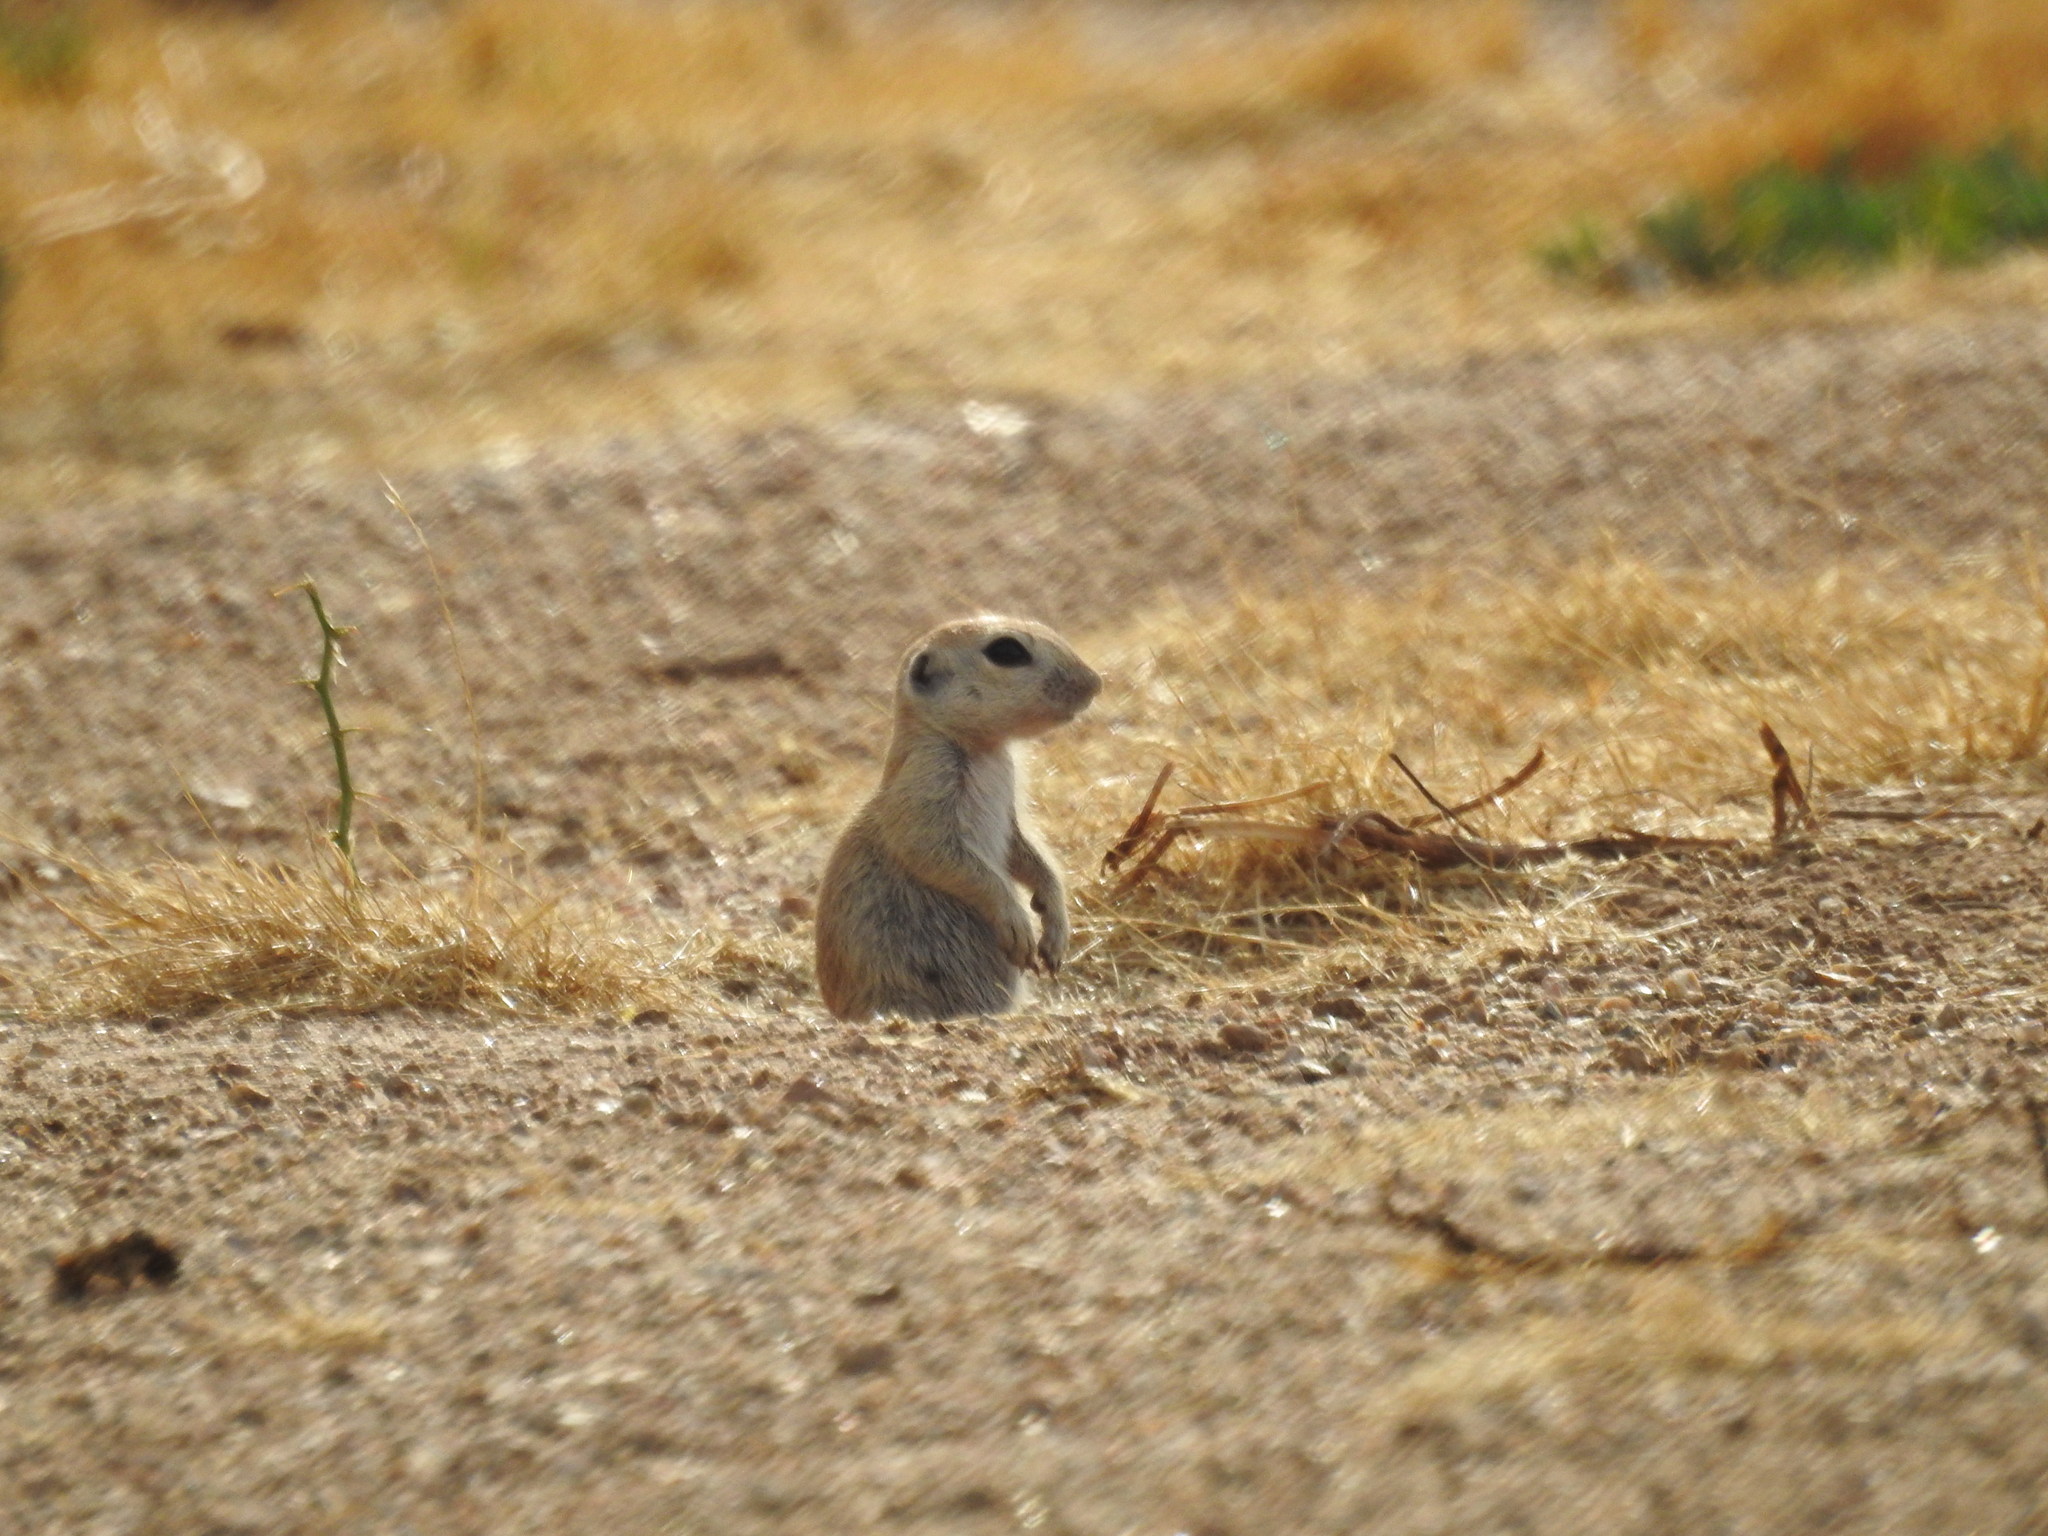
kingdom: Animalia
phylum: Chordata
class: Mammalia
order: Rodentia
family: Sciuridae
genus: Xerospermophilus
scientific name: Xerospermophilus tereticaudus
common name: Round-tailed ground squirrel
